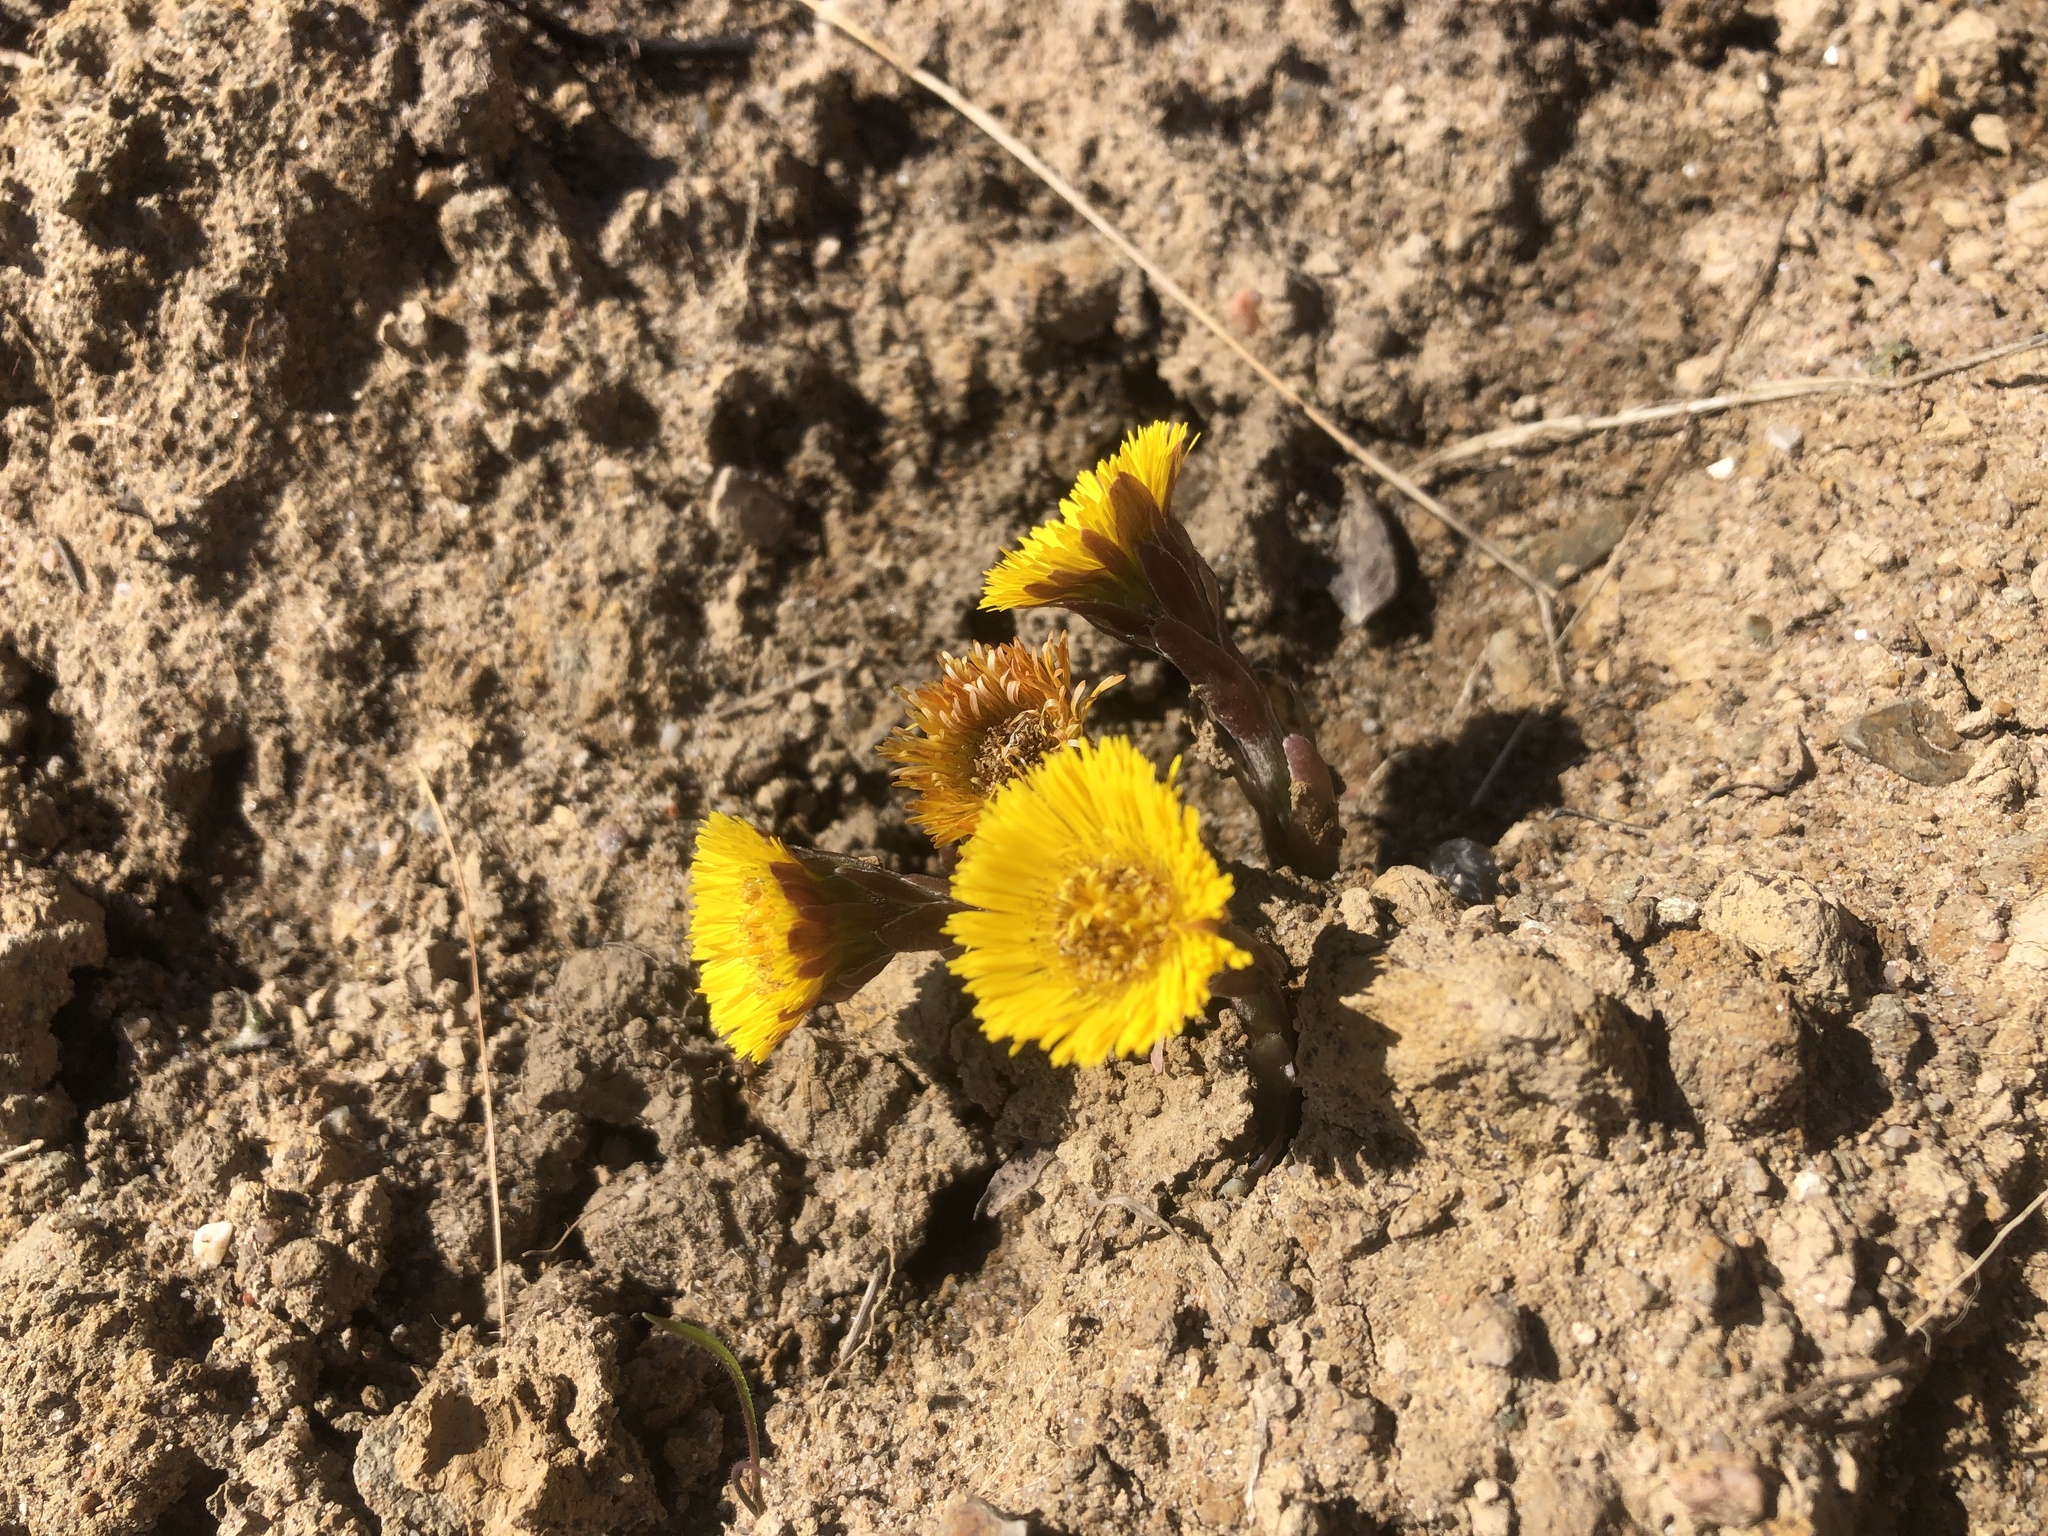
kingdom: Plantae
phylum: Tracheophyta
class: Magnoliopsida
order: Asterales
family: Asteraceae
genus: Tussilago
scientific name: Tussilago farfara
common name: Coltsfoot
